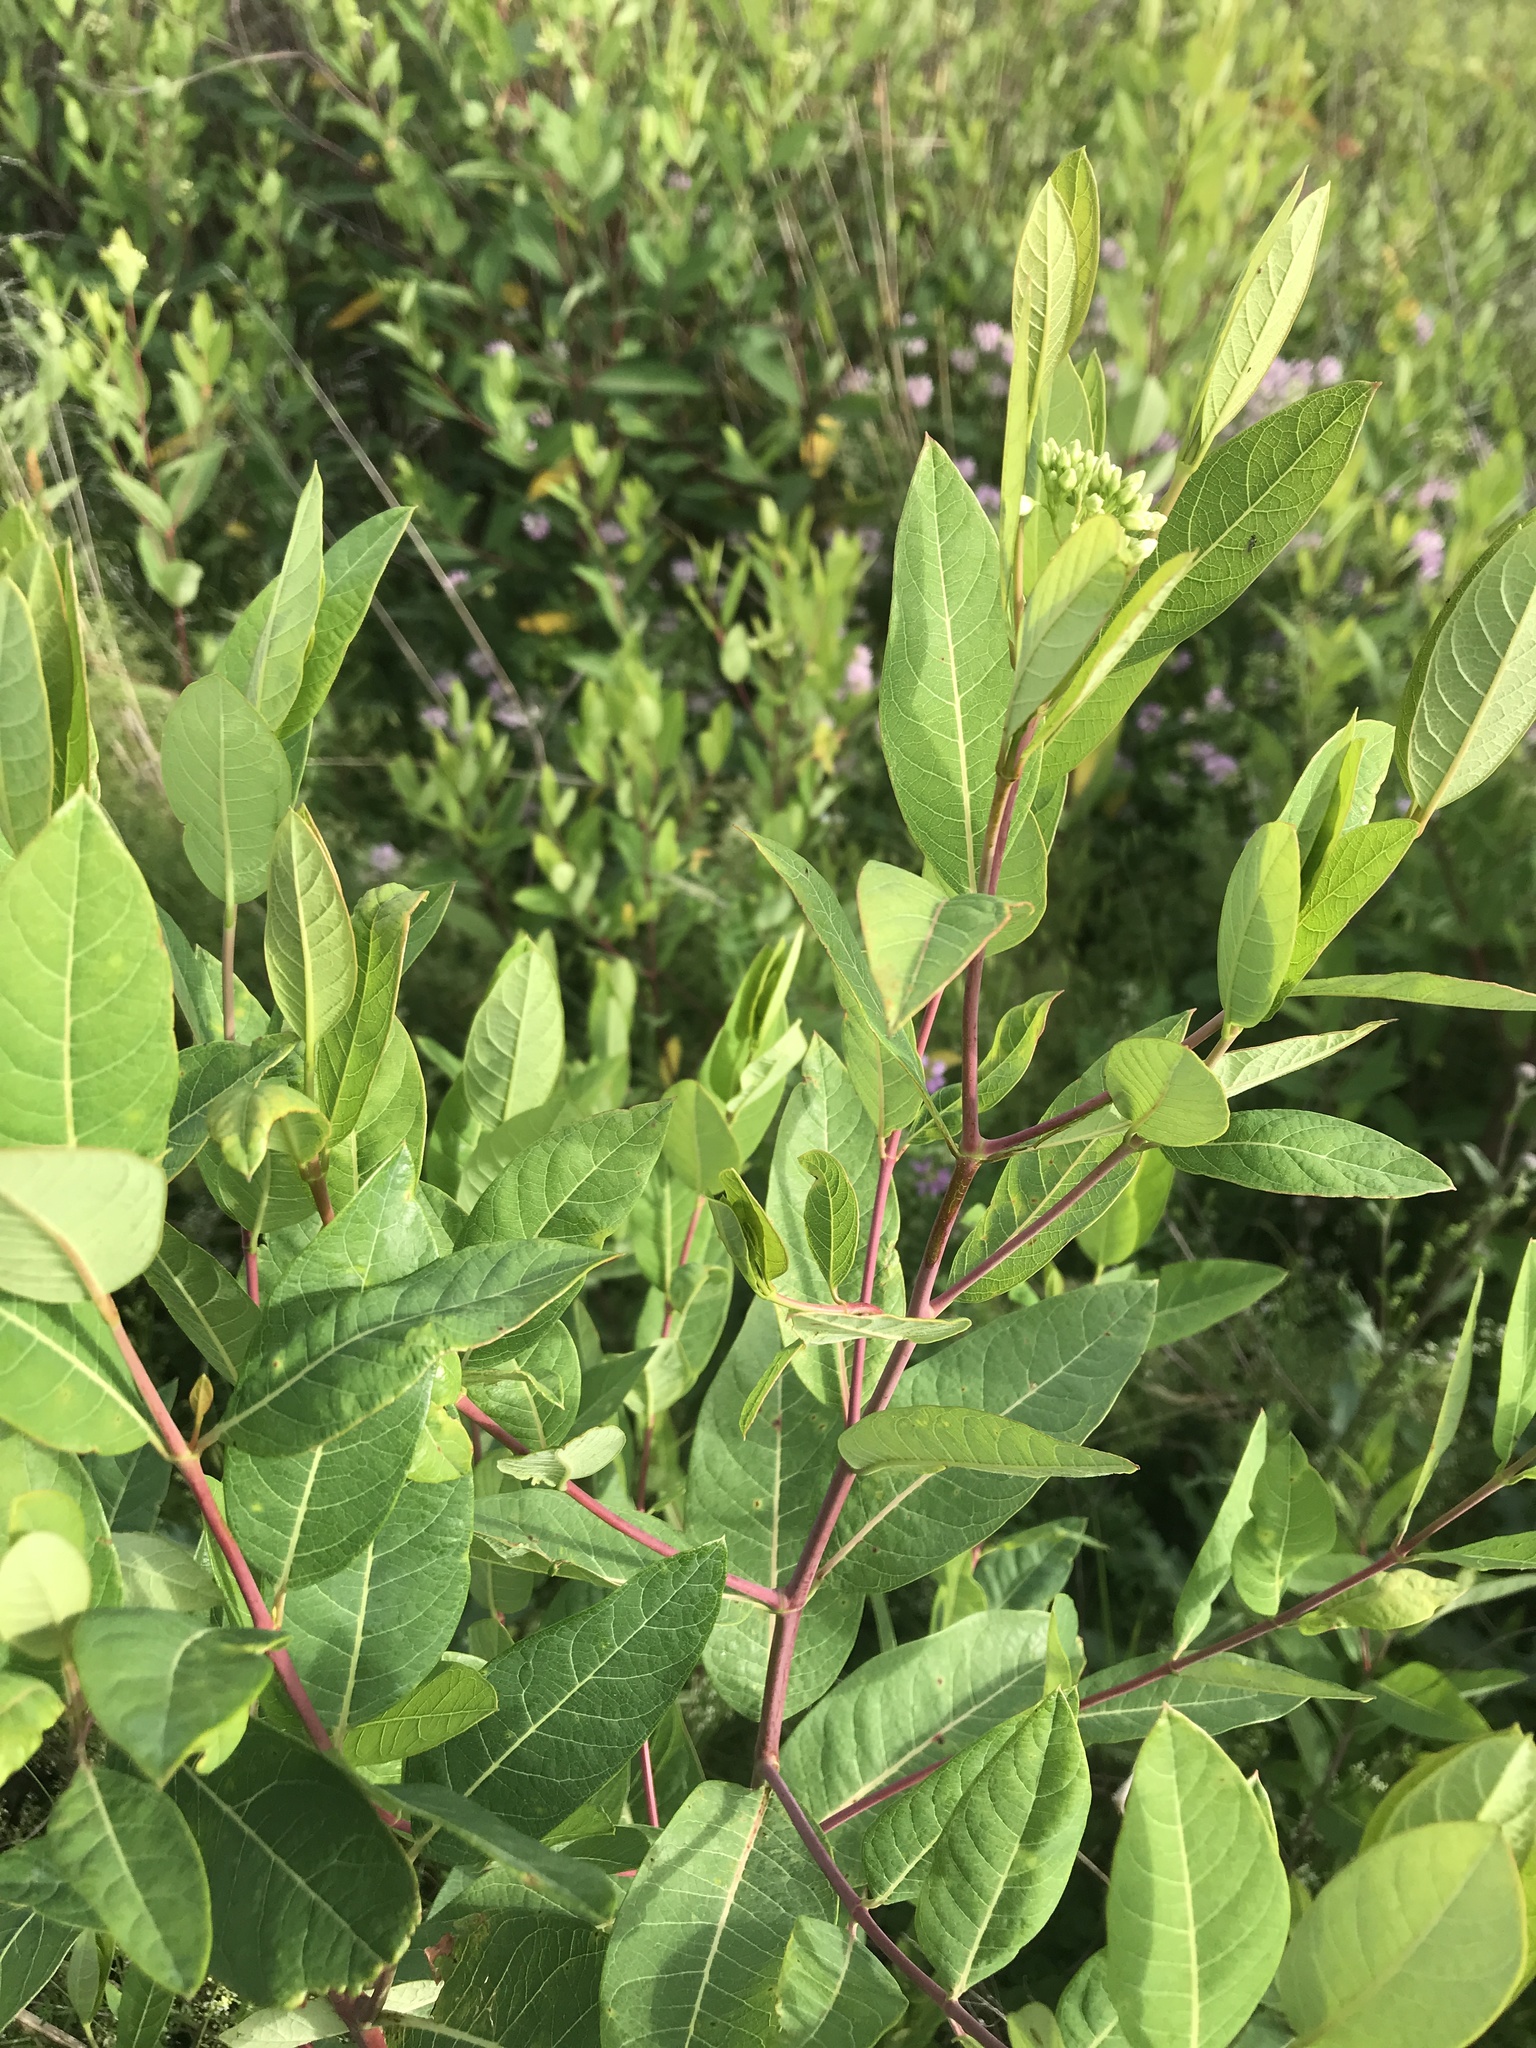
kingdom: Plantae
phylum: Tracheophyta
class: Magnoliopsida
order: Gentianales
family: Apocynaceae
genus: Apocynum
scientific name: Apocynum cannabinum
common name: Hemp dogbane
